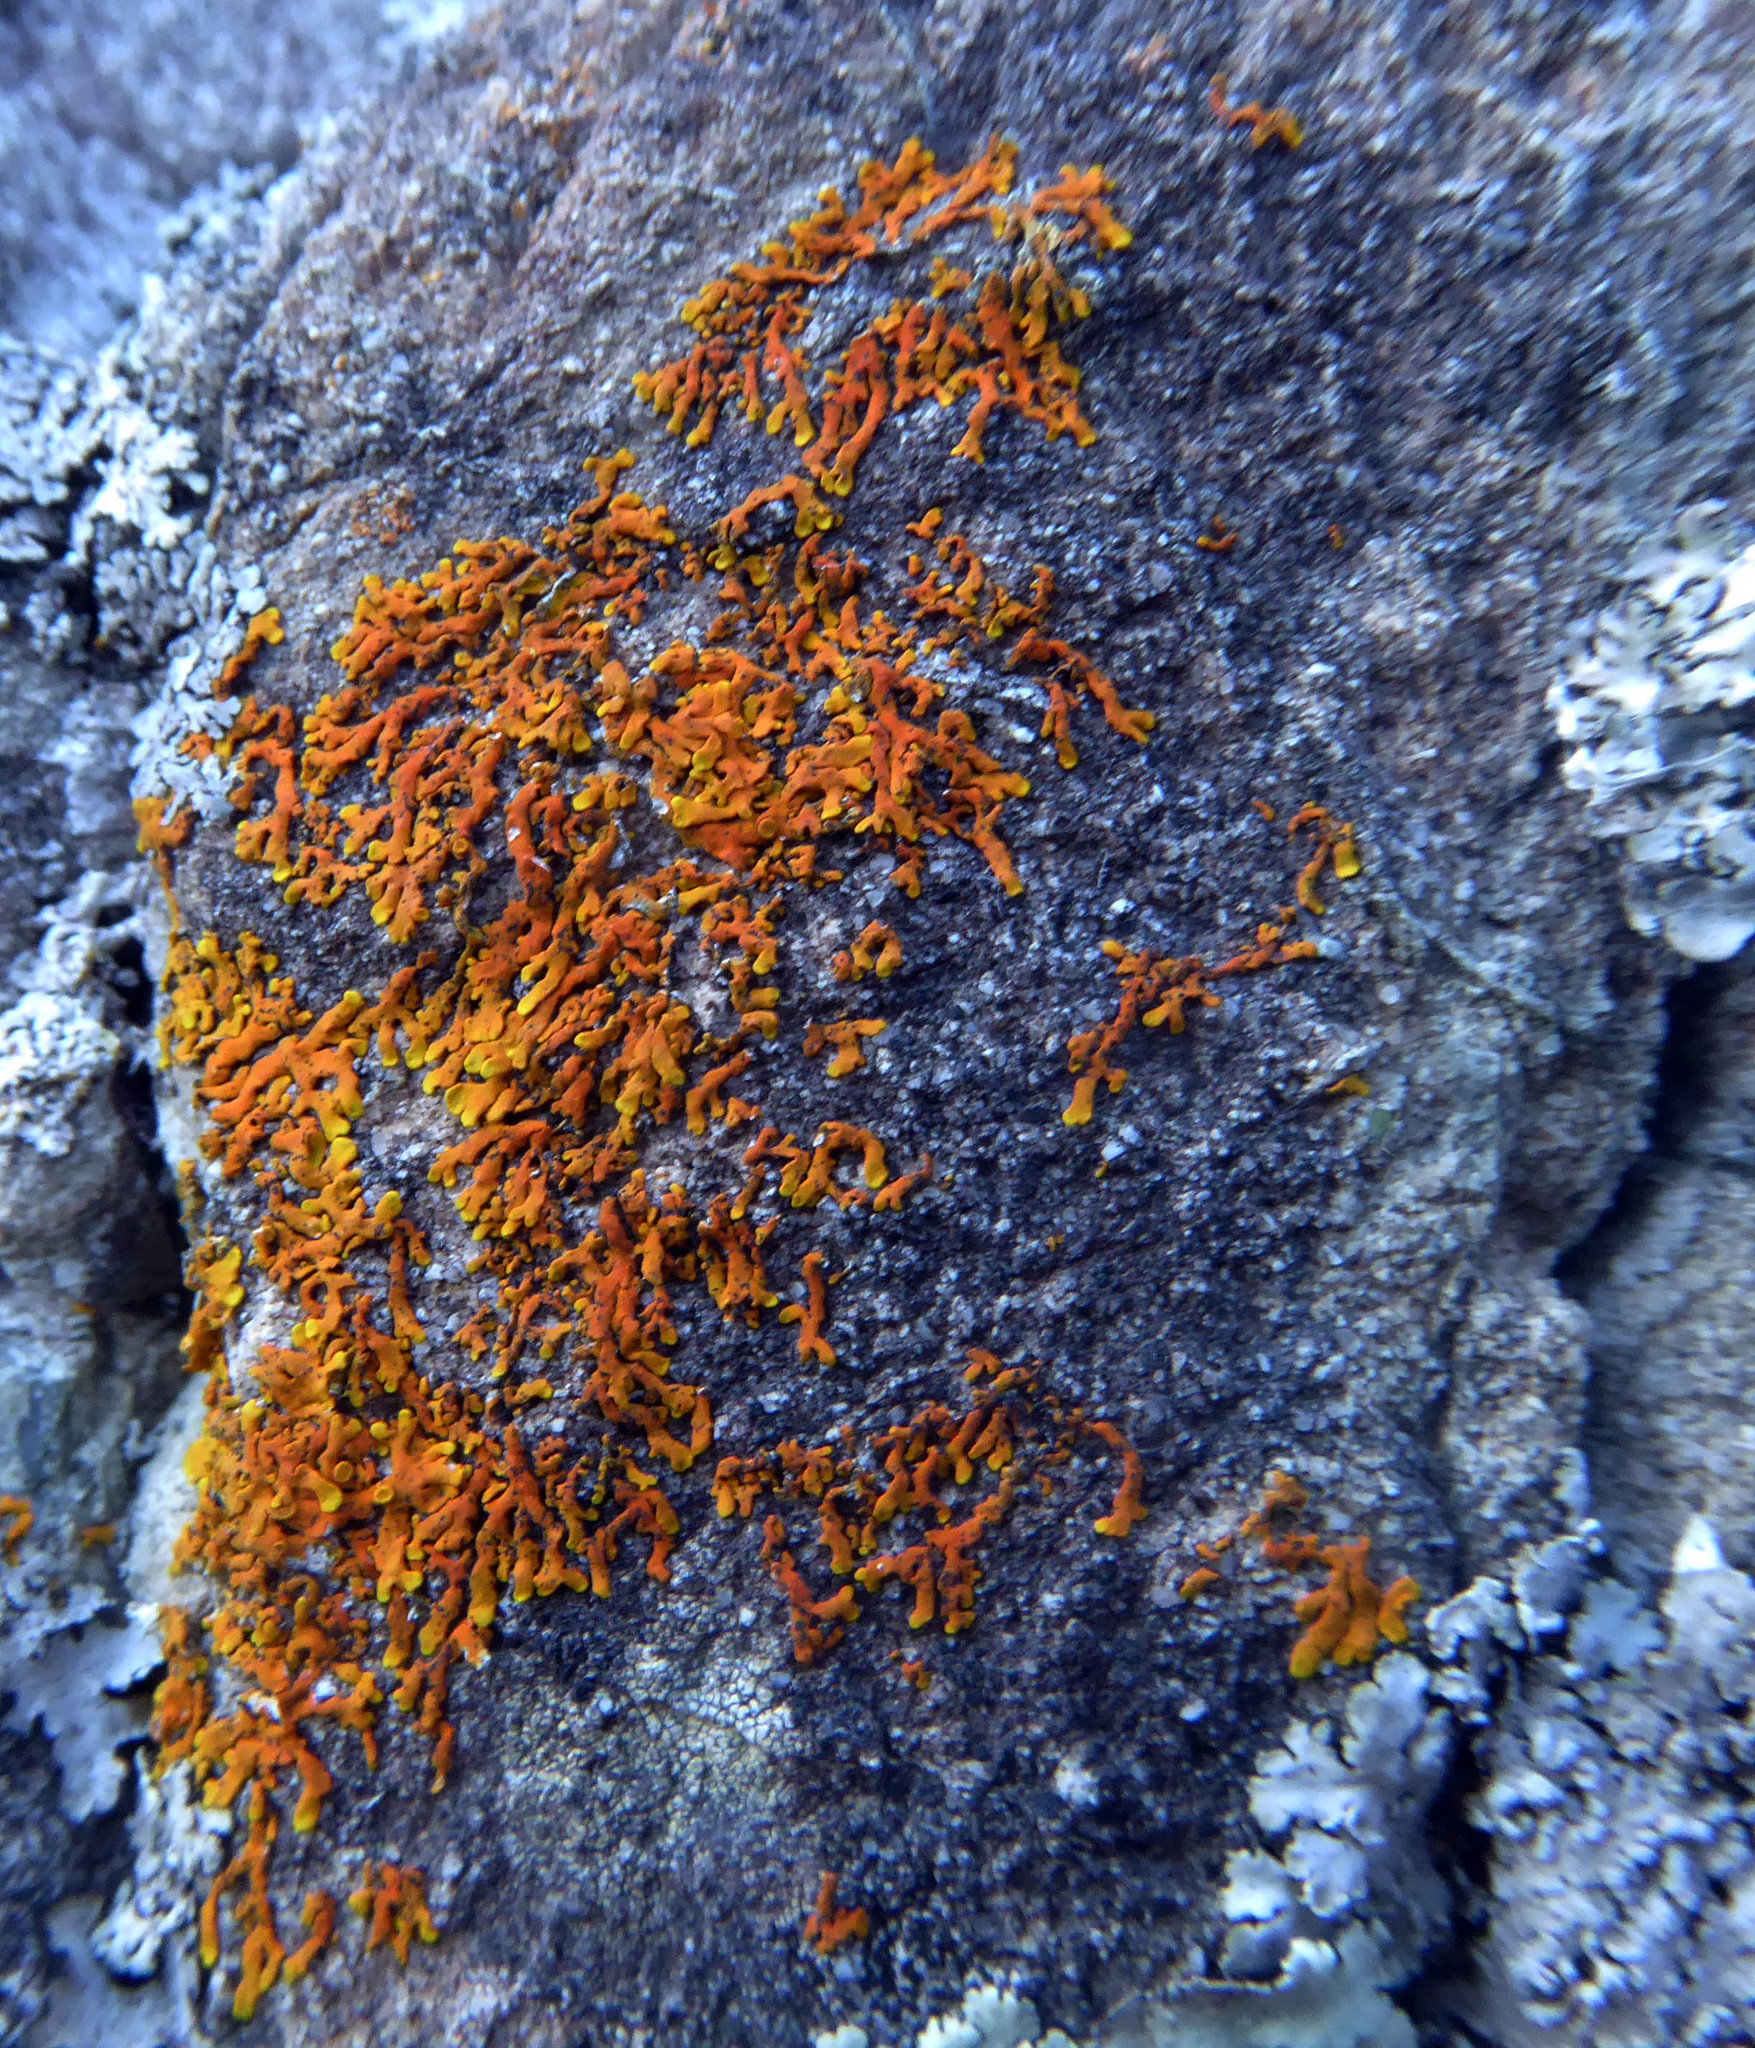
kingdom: Fungi
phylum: Ascomycota
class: Lecanoromycetes
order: Teloschistales
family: Teloschistaceae
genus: Dufourea
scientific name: Dufourea ligulata
